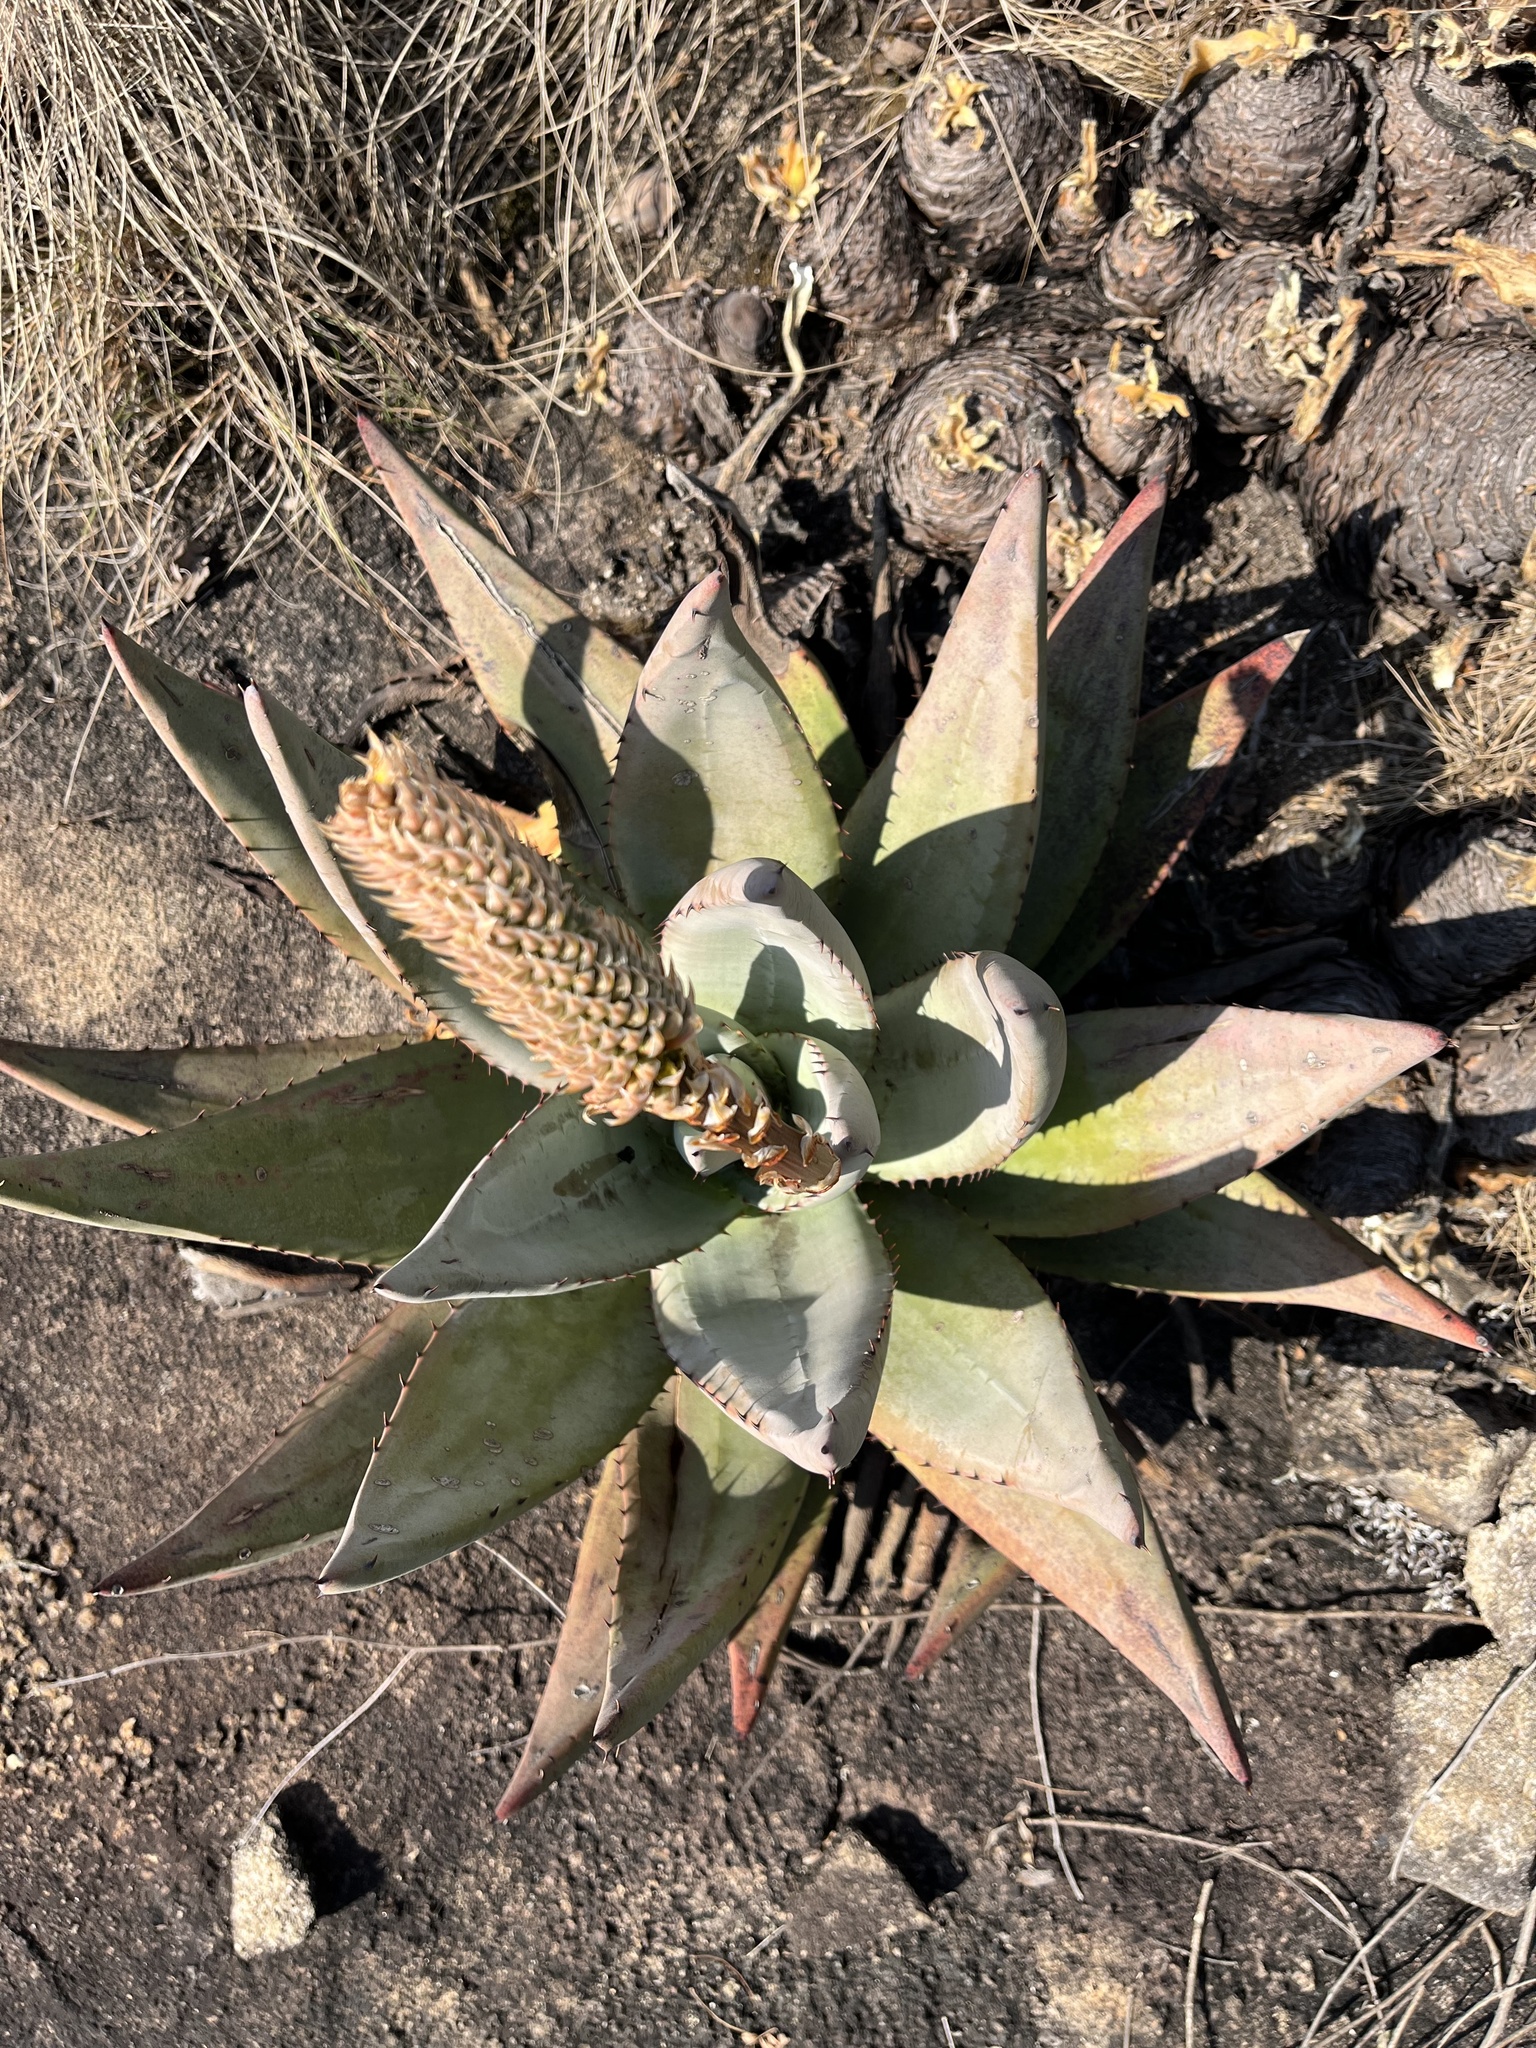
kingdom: Plantae
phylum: Tracheophyta
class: Liliopsida
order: Asparagales
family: Asphodelaceae
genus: Aloe
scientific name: Aloe petricola
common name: Rock aloe
